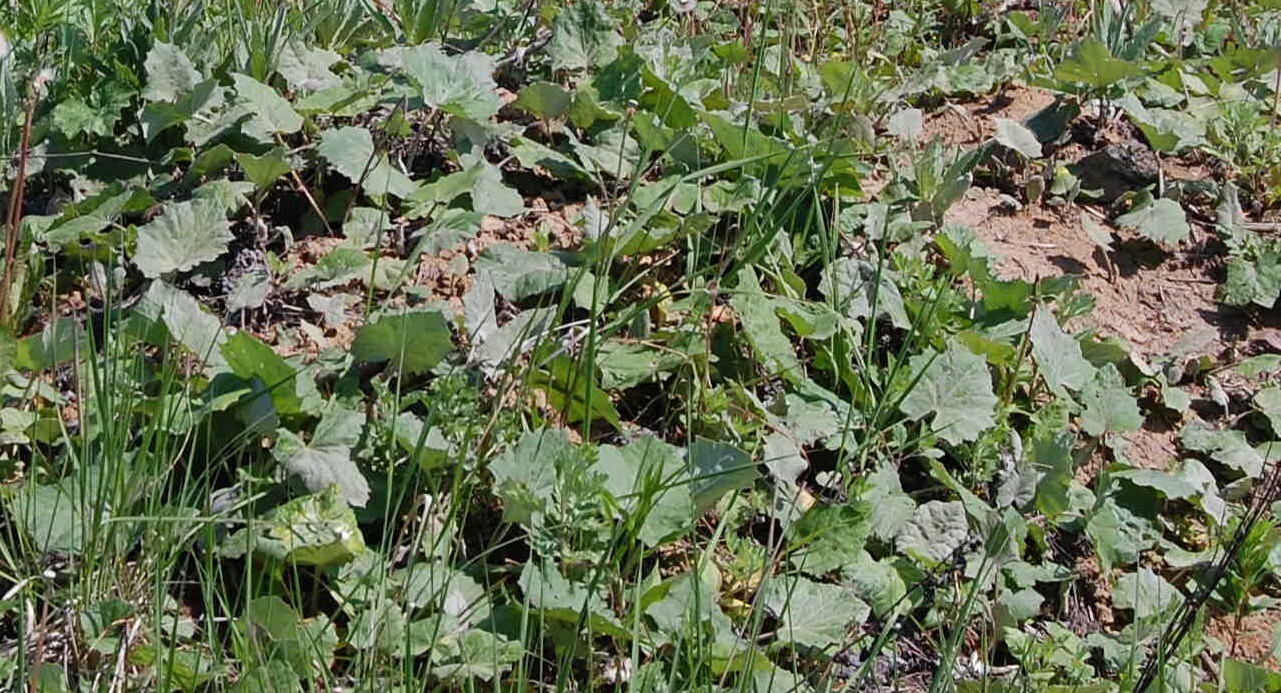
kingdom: Plantae
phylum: Tracheophyta
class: Magnoliopsida
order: Asterales
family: Asteraceae
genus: Tussilago
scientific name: Tussilago farfara
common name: Coltsfoot
